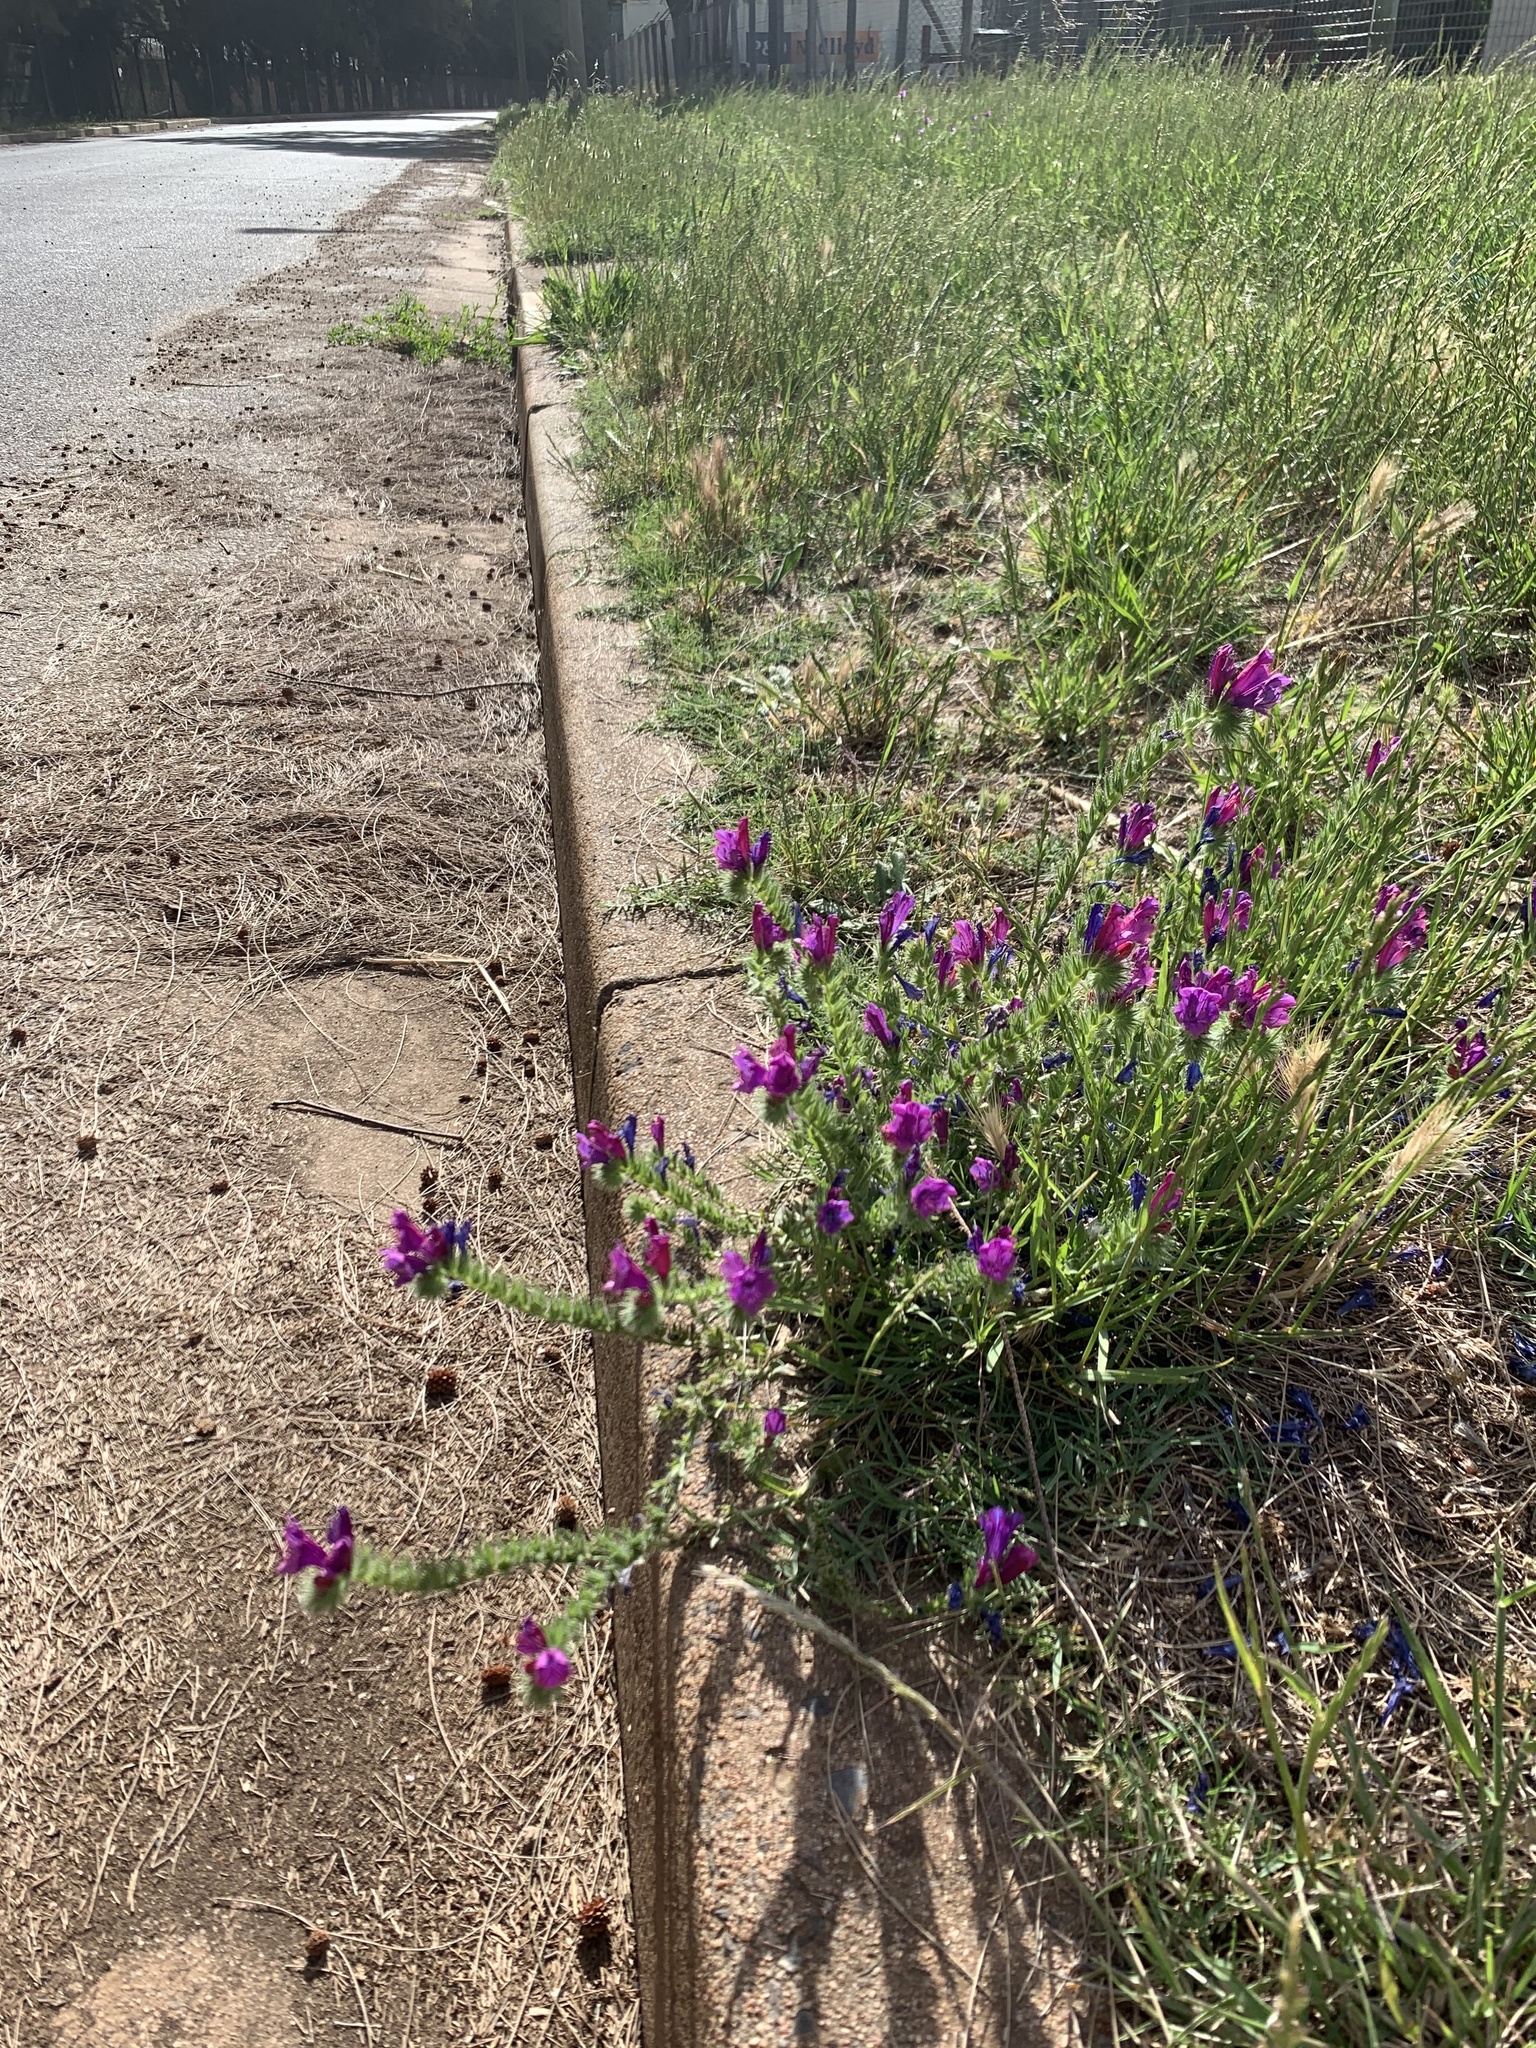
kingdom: Plantae
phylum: Tracheophyta
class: Magnoliopsida
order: Boraginales
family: Boraginaceae
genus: Echium
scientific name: Echium plantagineum
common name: Purple viper's-bugloss
